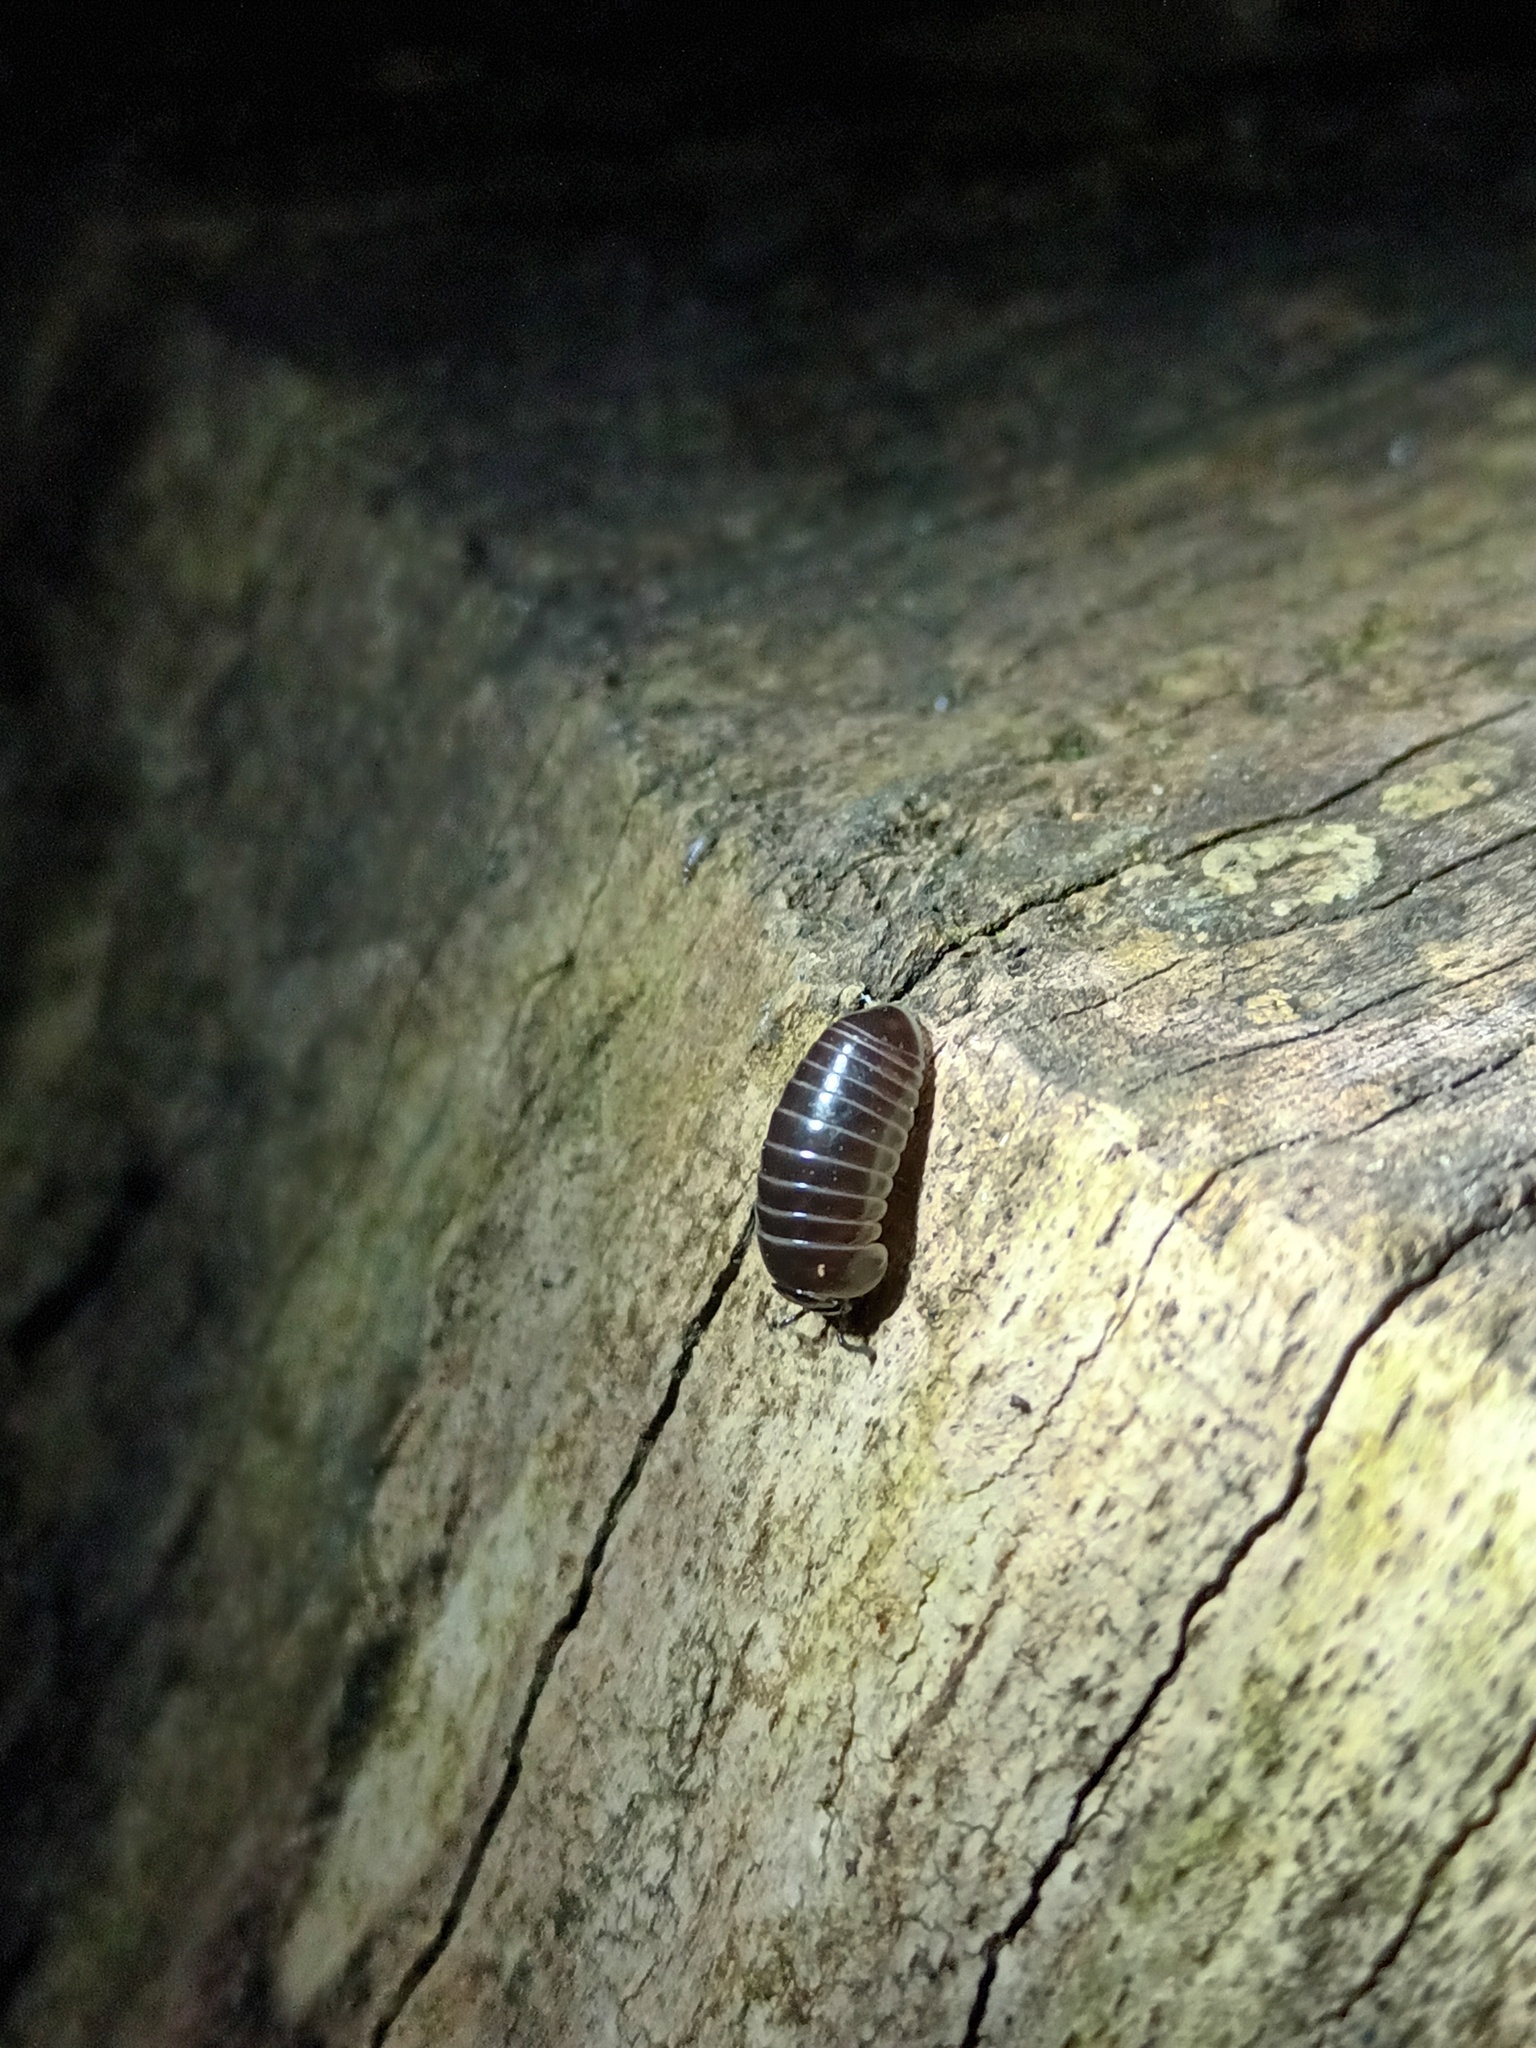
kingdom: Animalia
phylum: Arthropoda
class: Diplopoda
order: Glomerida
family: Glomeridae
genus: Glomeris
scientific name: Glomeris marginata
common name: Bordered pill millipede
